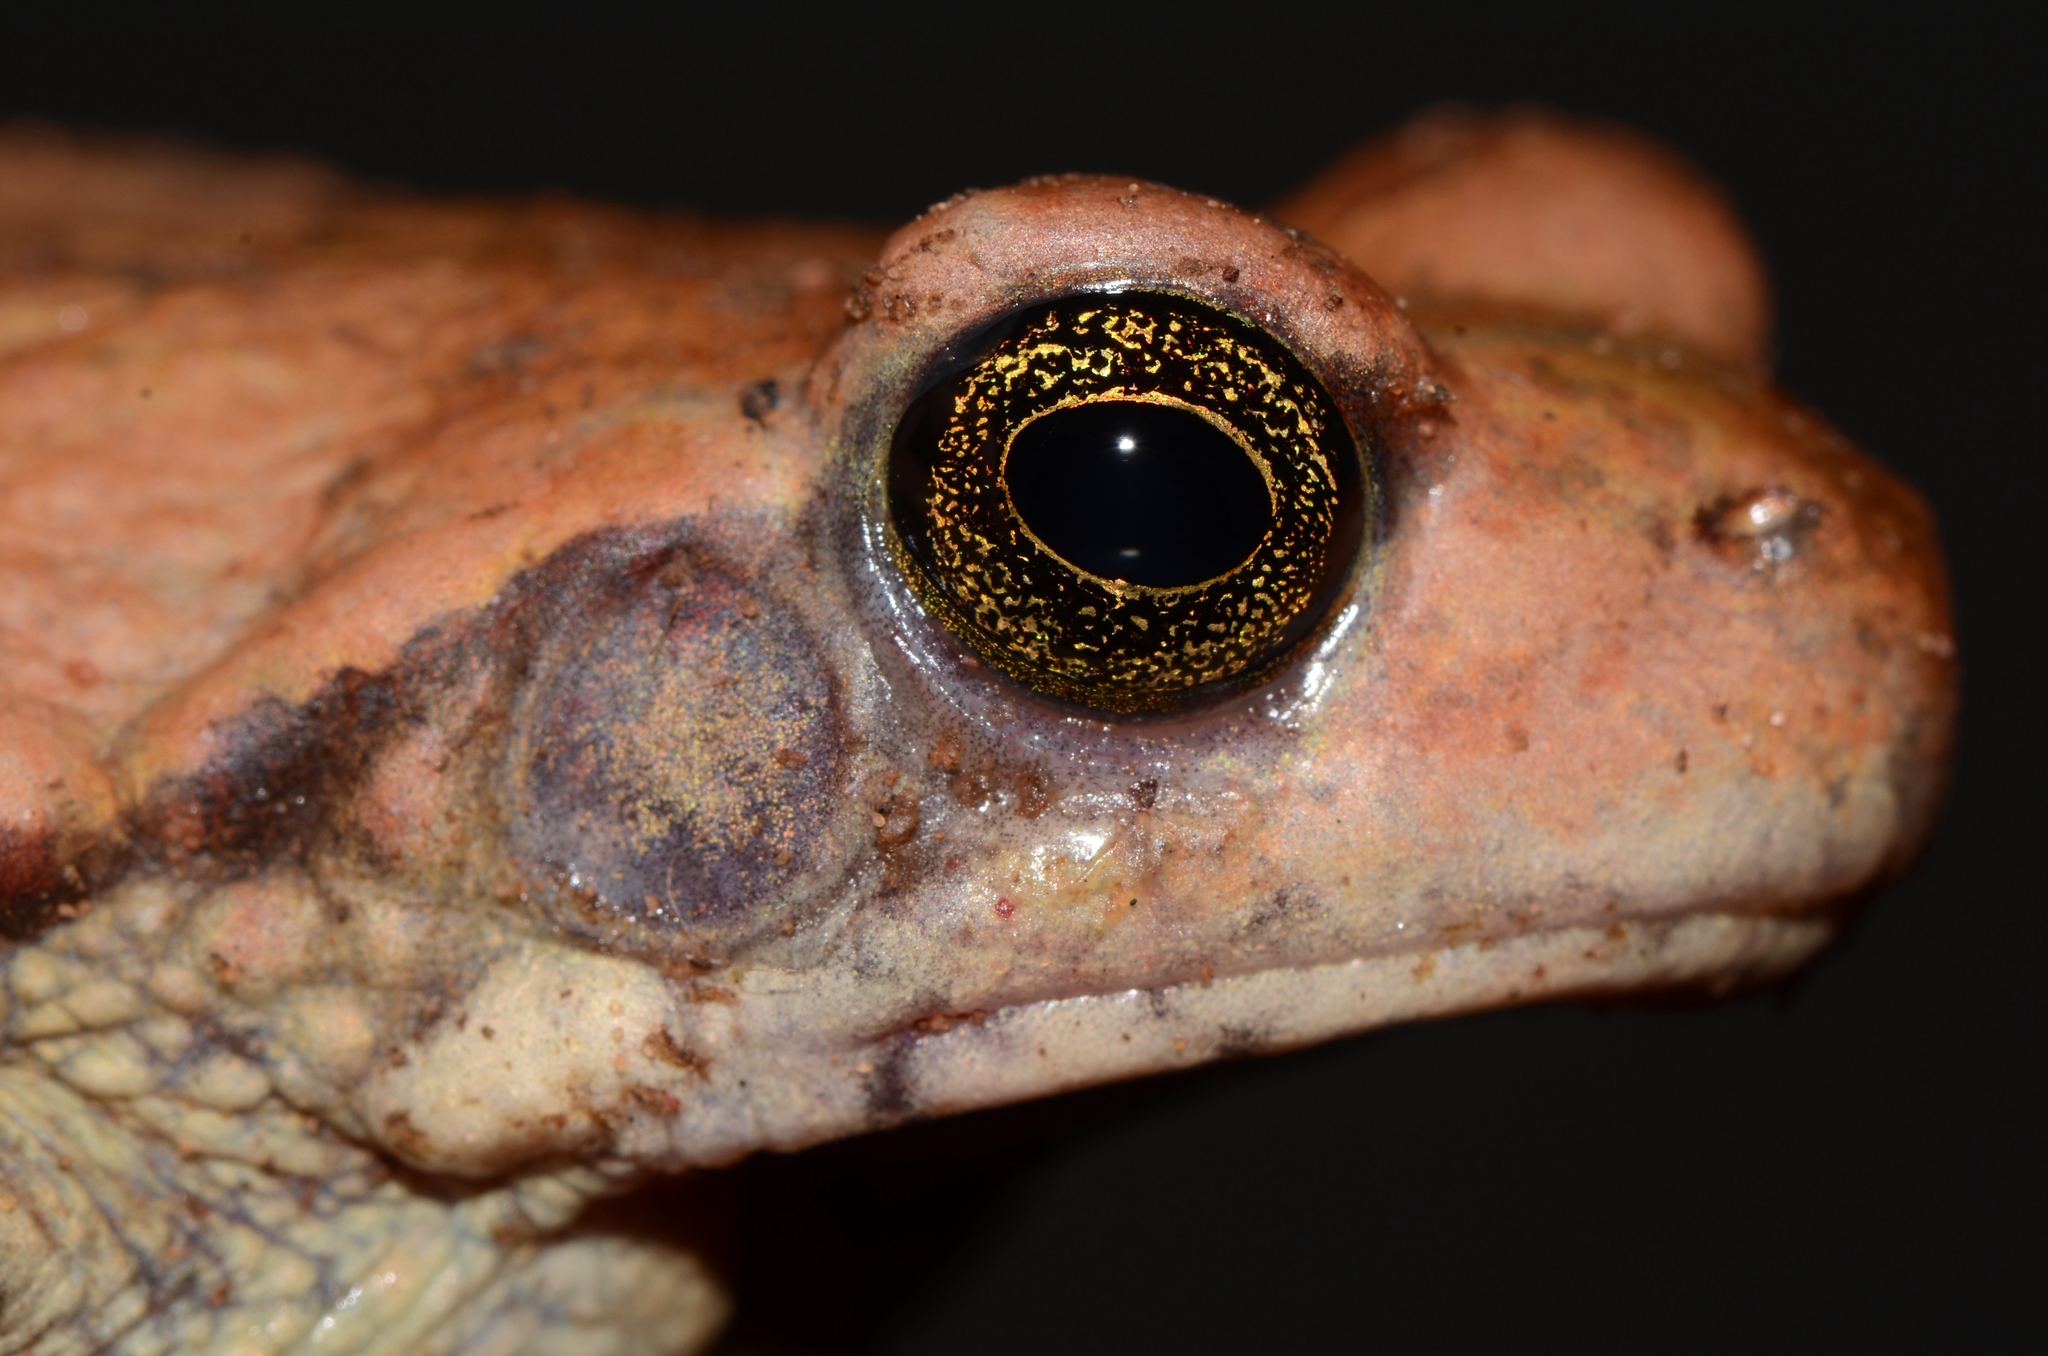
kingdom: Animalia
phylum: Chordata
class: Amphibia
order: Anura
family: Bufonidae
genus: Schismaderma
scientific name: Schismaderma carens
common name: African split-skin toad
